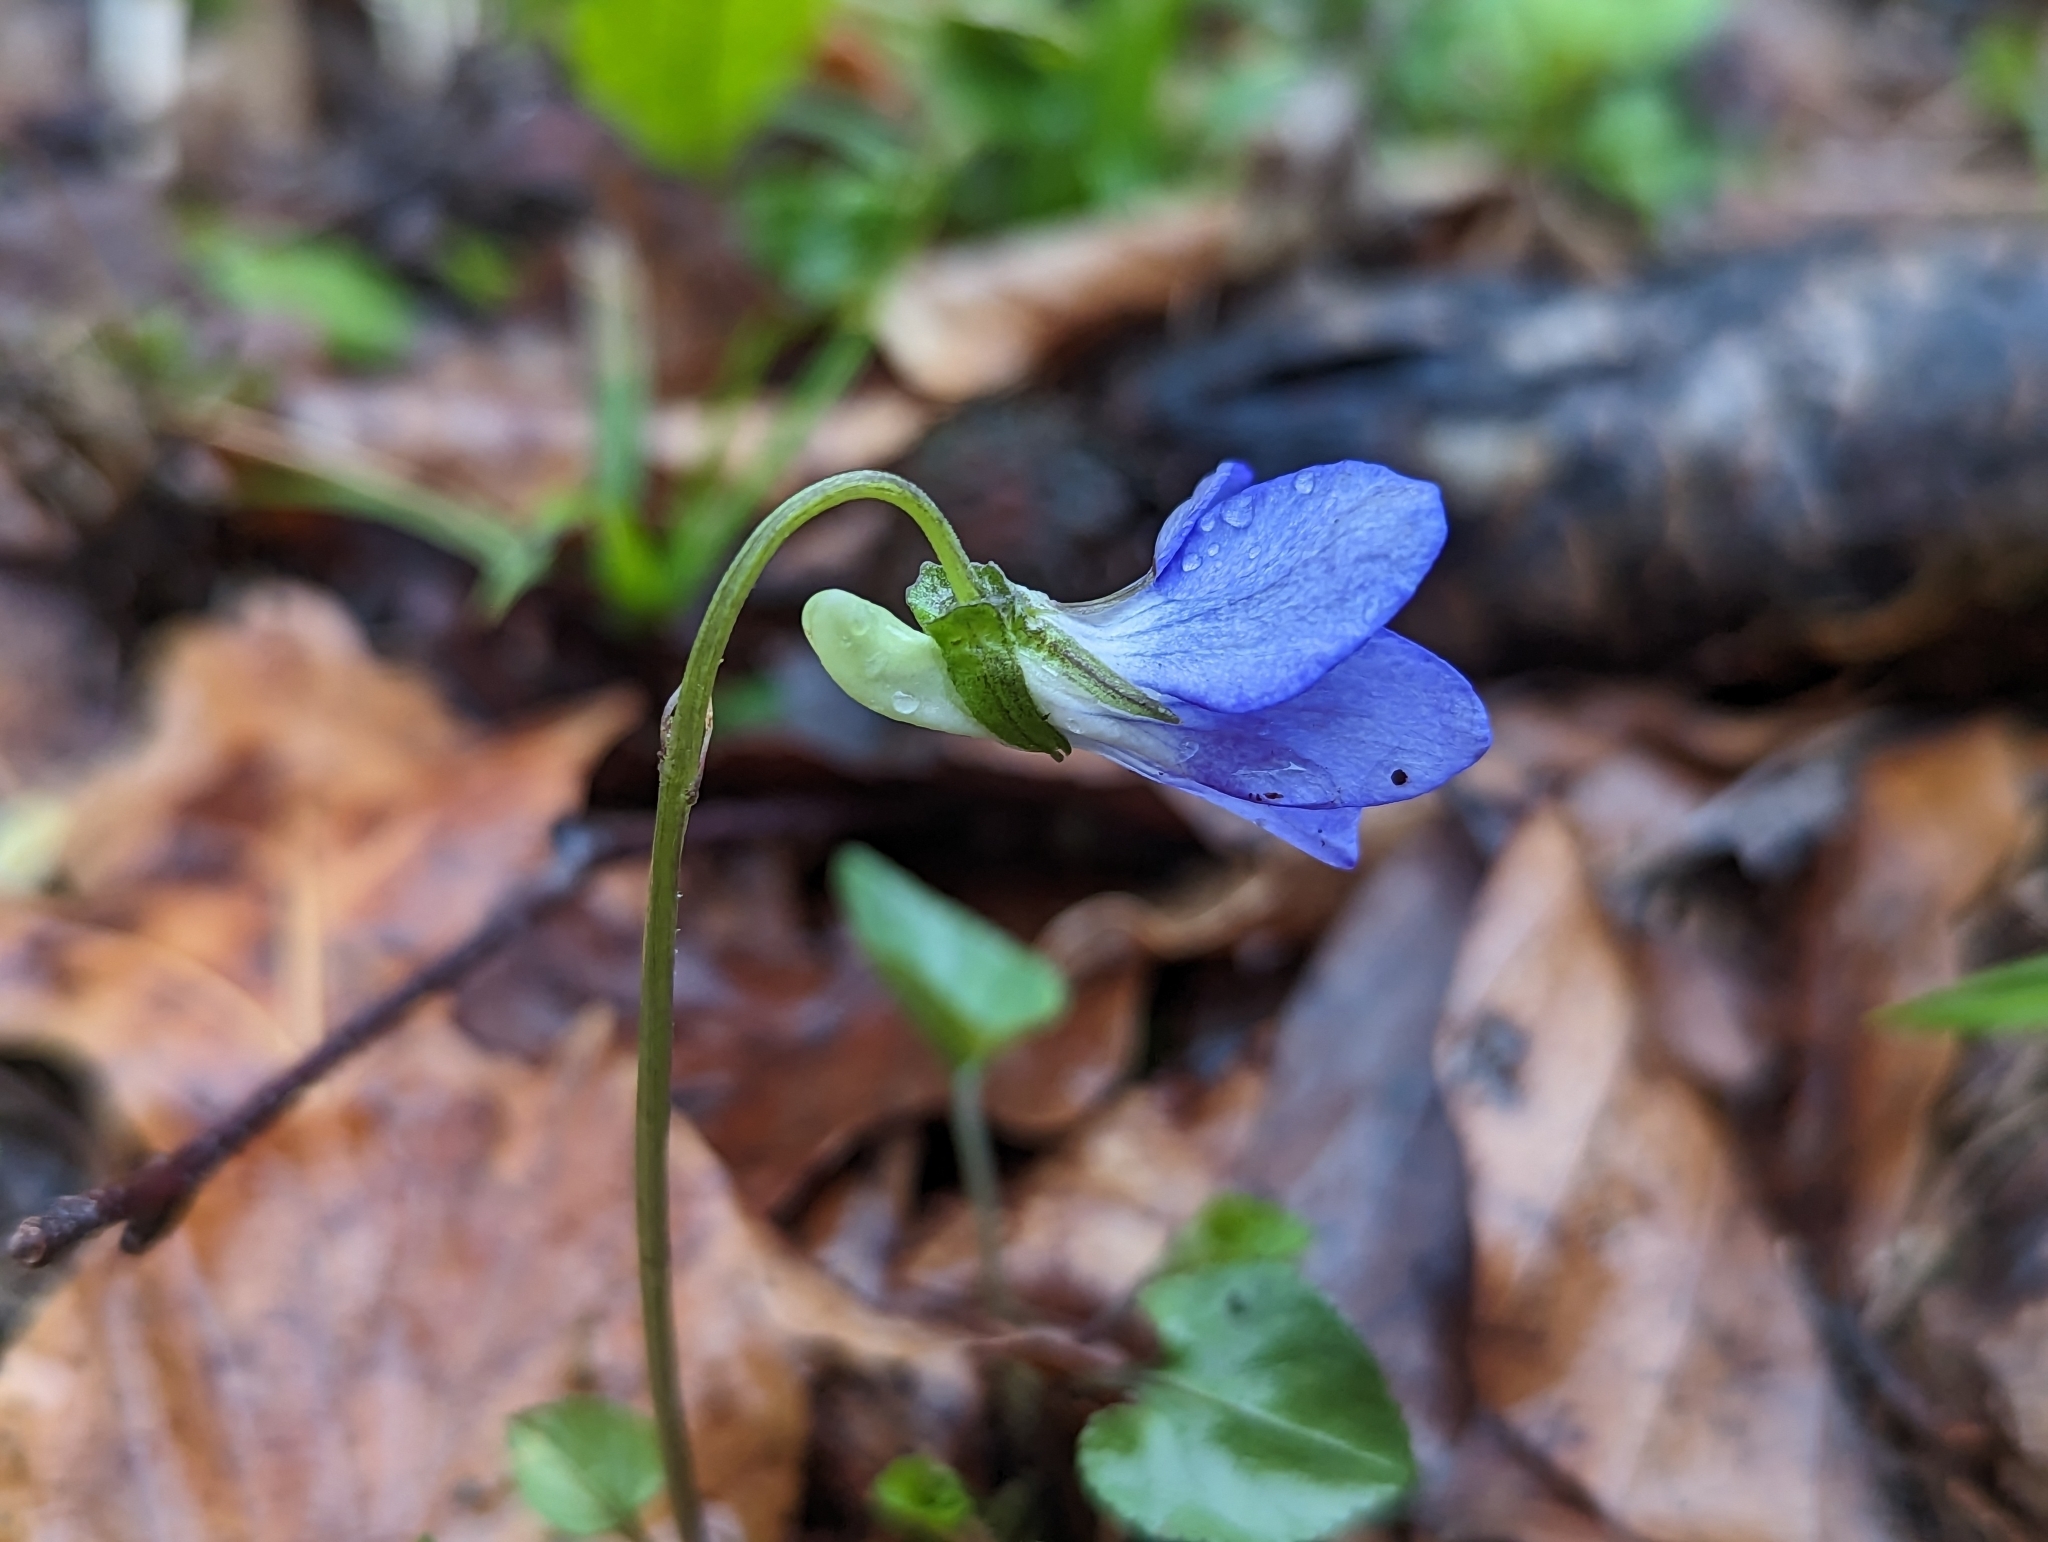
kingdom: Plantae
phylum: Tracheophyta
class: Magnoliopsida
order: Malpighiales
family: Violaceae
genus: Viola
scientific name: Viola riviniana
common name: Common dog-violet
